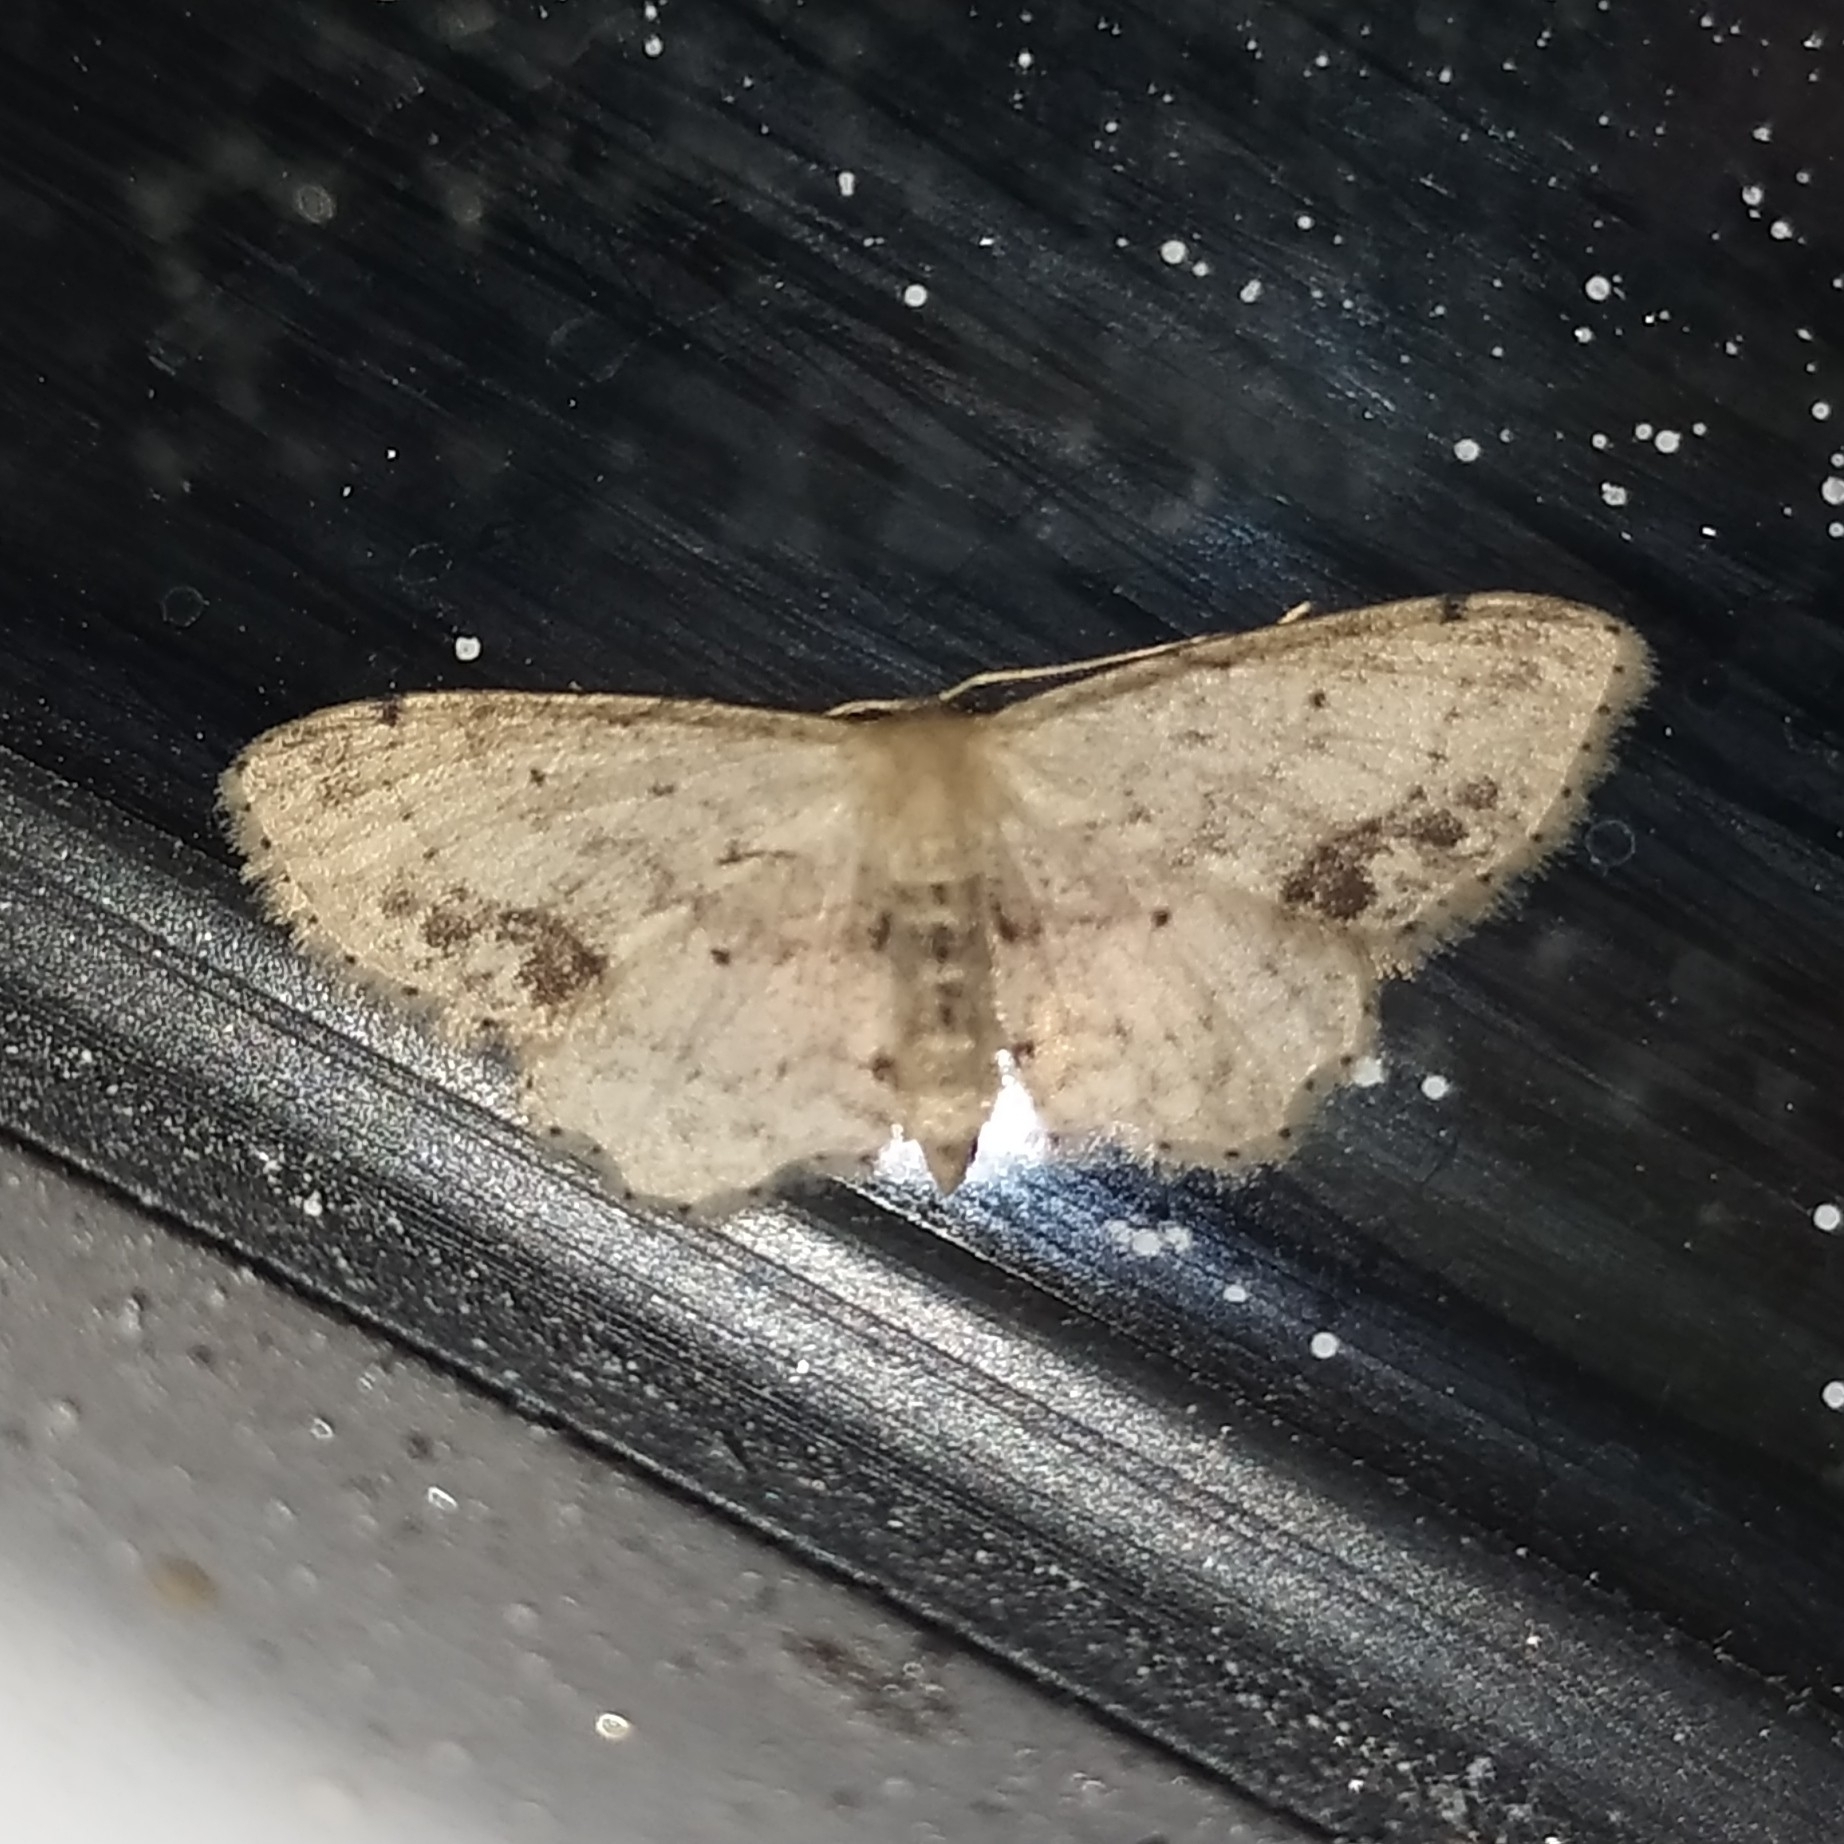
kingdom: Animalia
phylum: Arthropoda
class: Insecta
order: Lepidoptera
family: Geometridae
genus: Idaea
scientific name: Idaea dimidiata
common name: Single-dotted wave
